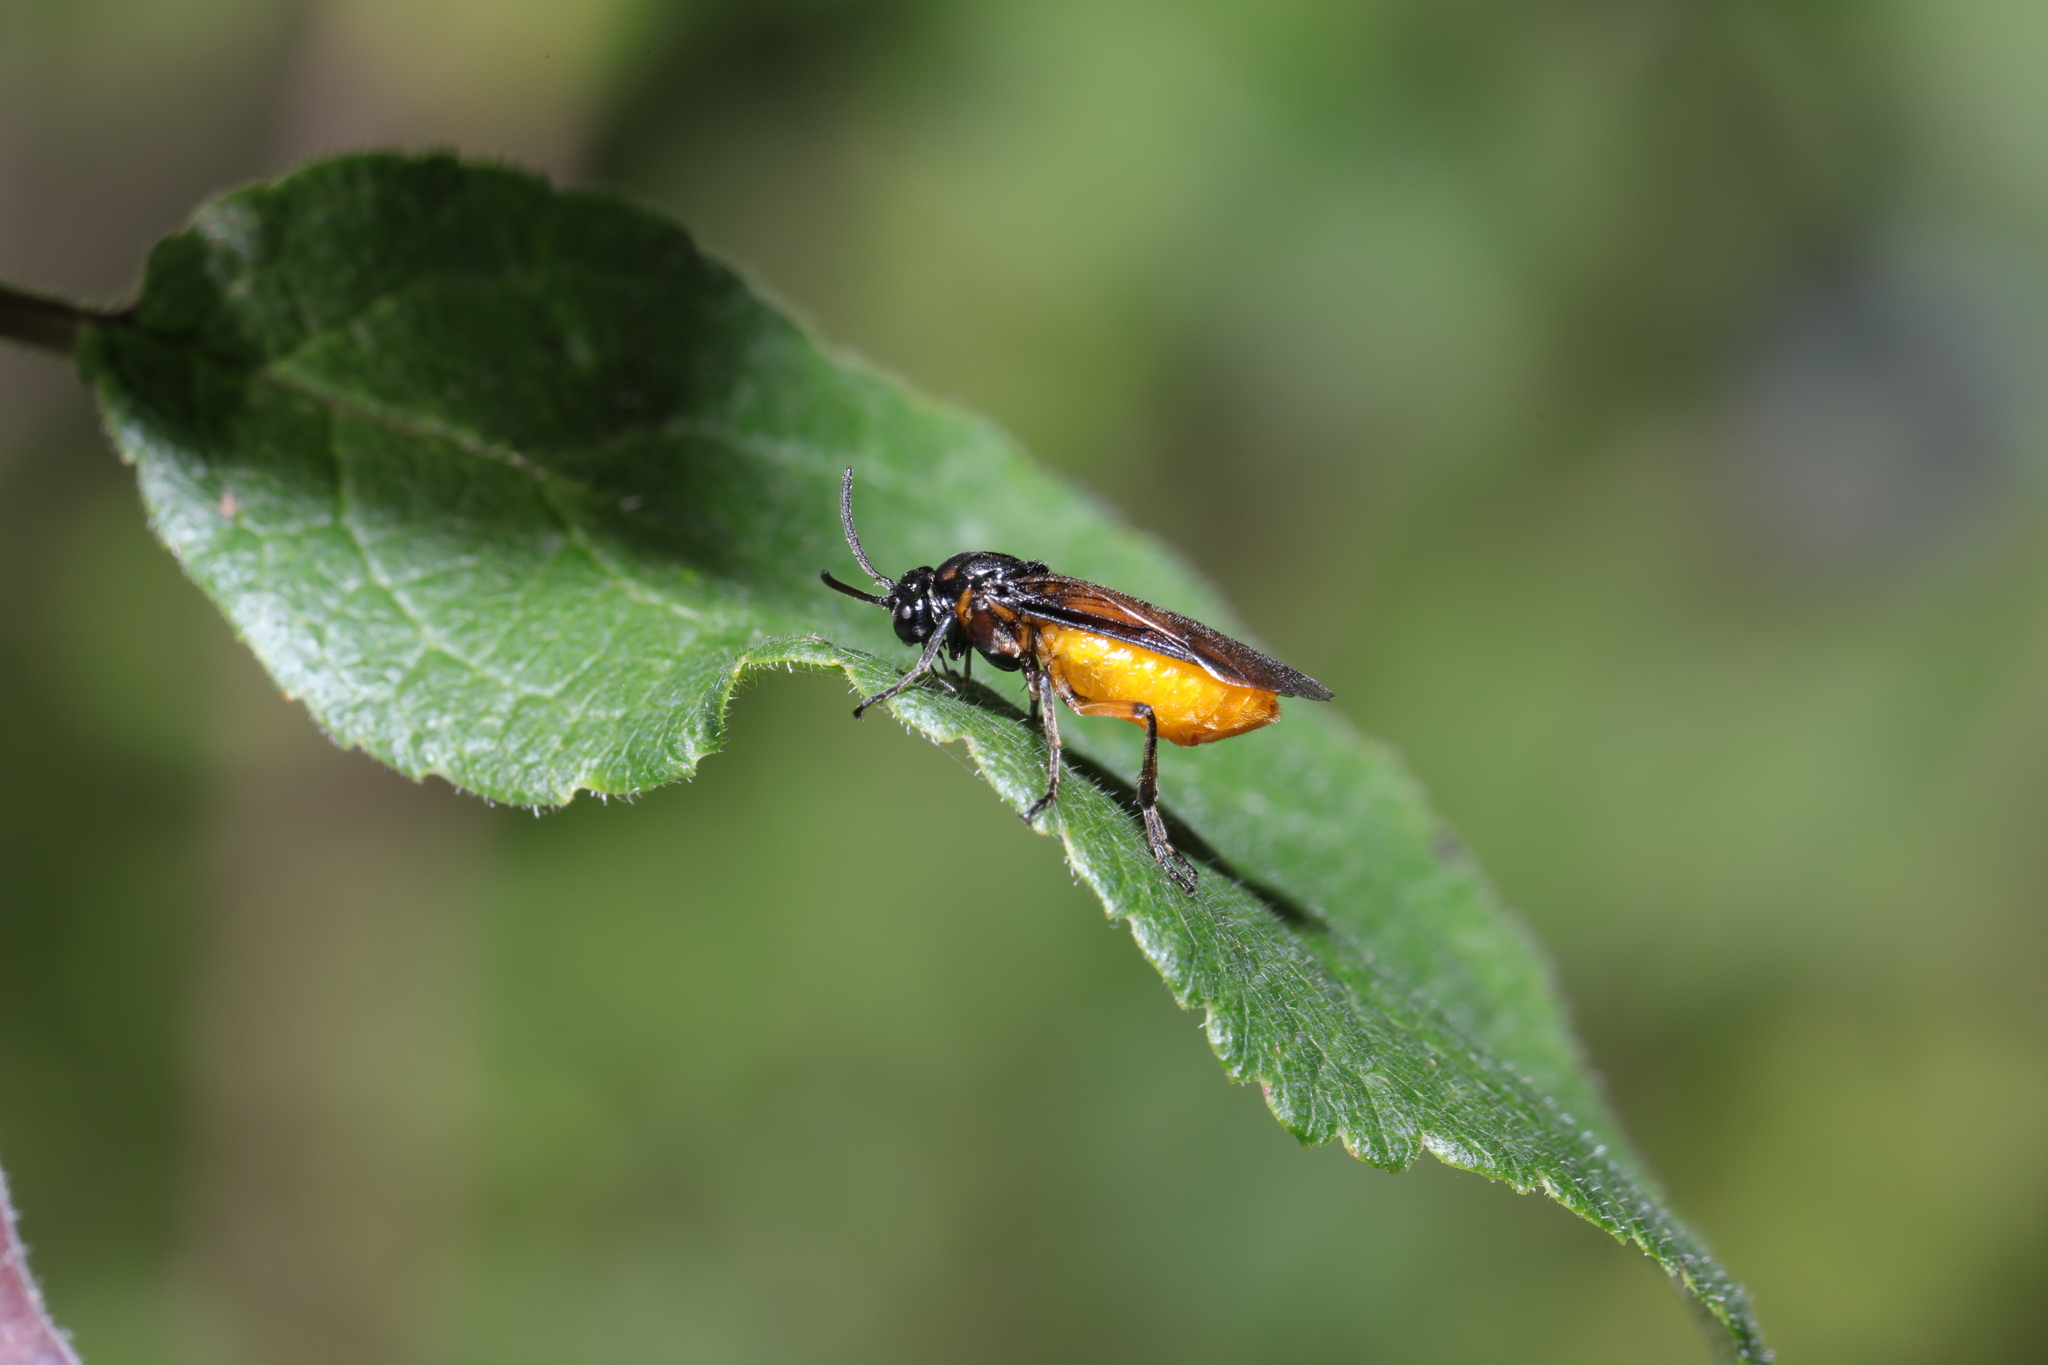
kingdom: Animalia
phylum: Arthropoda
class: Insecta
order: Hymenoptera
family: Argidae
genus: Arge
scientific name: Arge pagana
